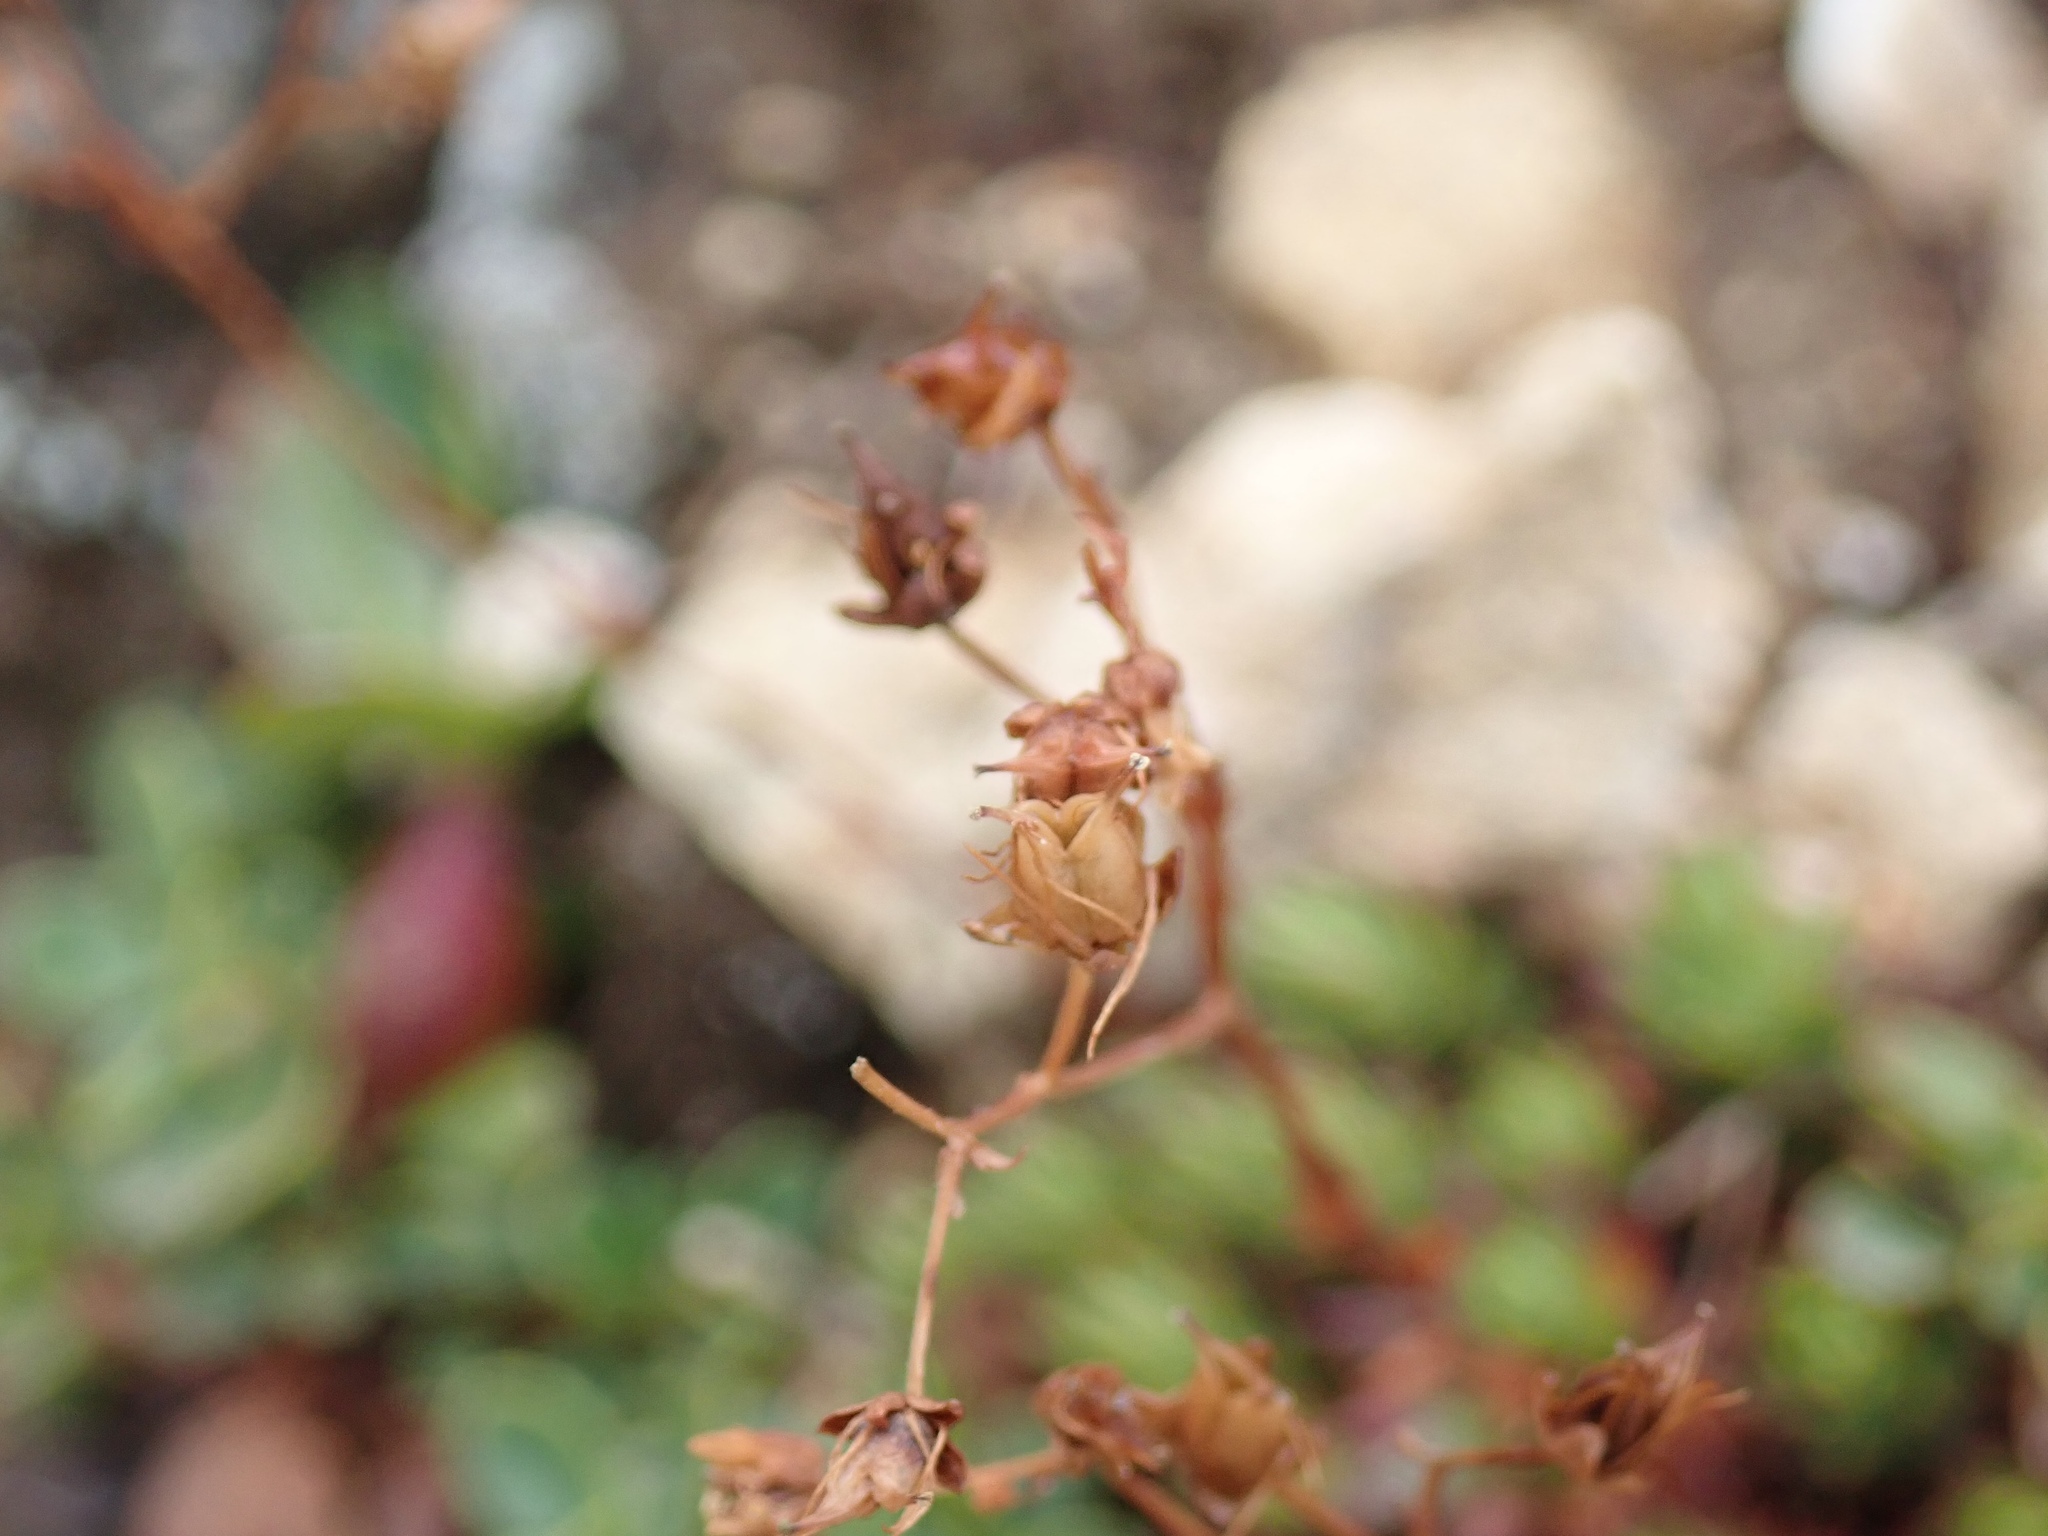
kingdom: Plantae
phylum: Tracheophyta
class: Magnoliopsida
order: Saxifragales
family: Saxifragaceae
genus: Saxifraga
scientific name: Saxifraga bronchialis
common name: Matted saxifrage
